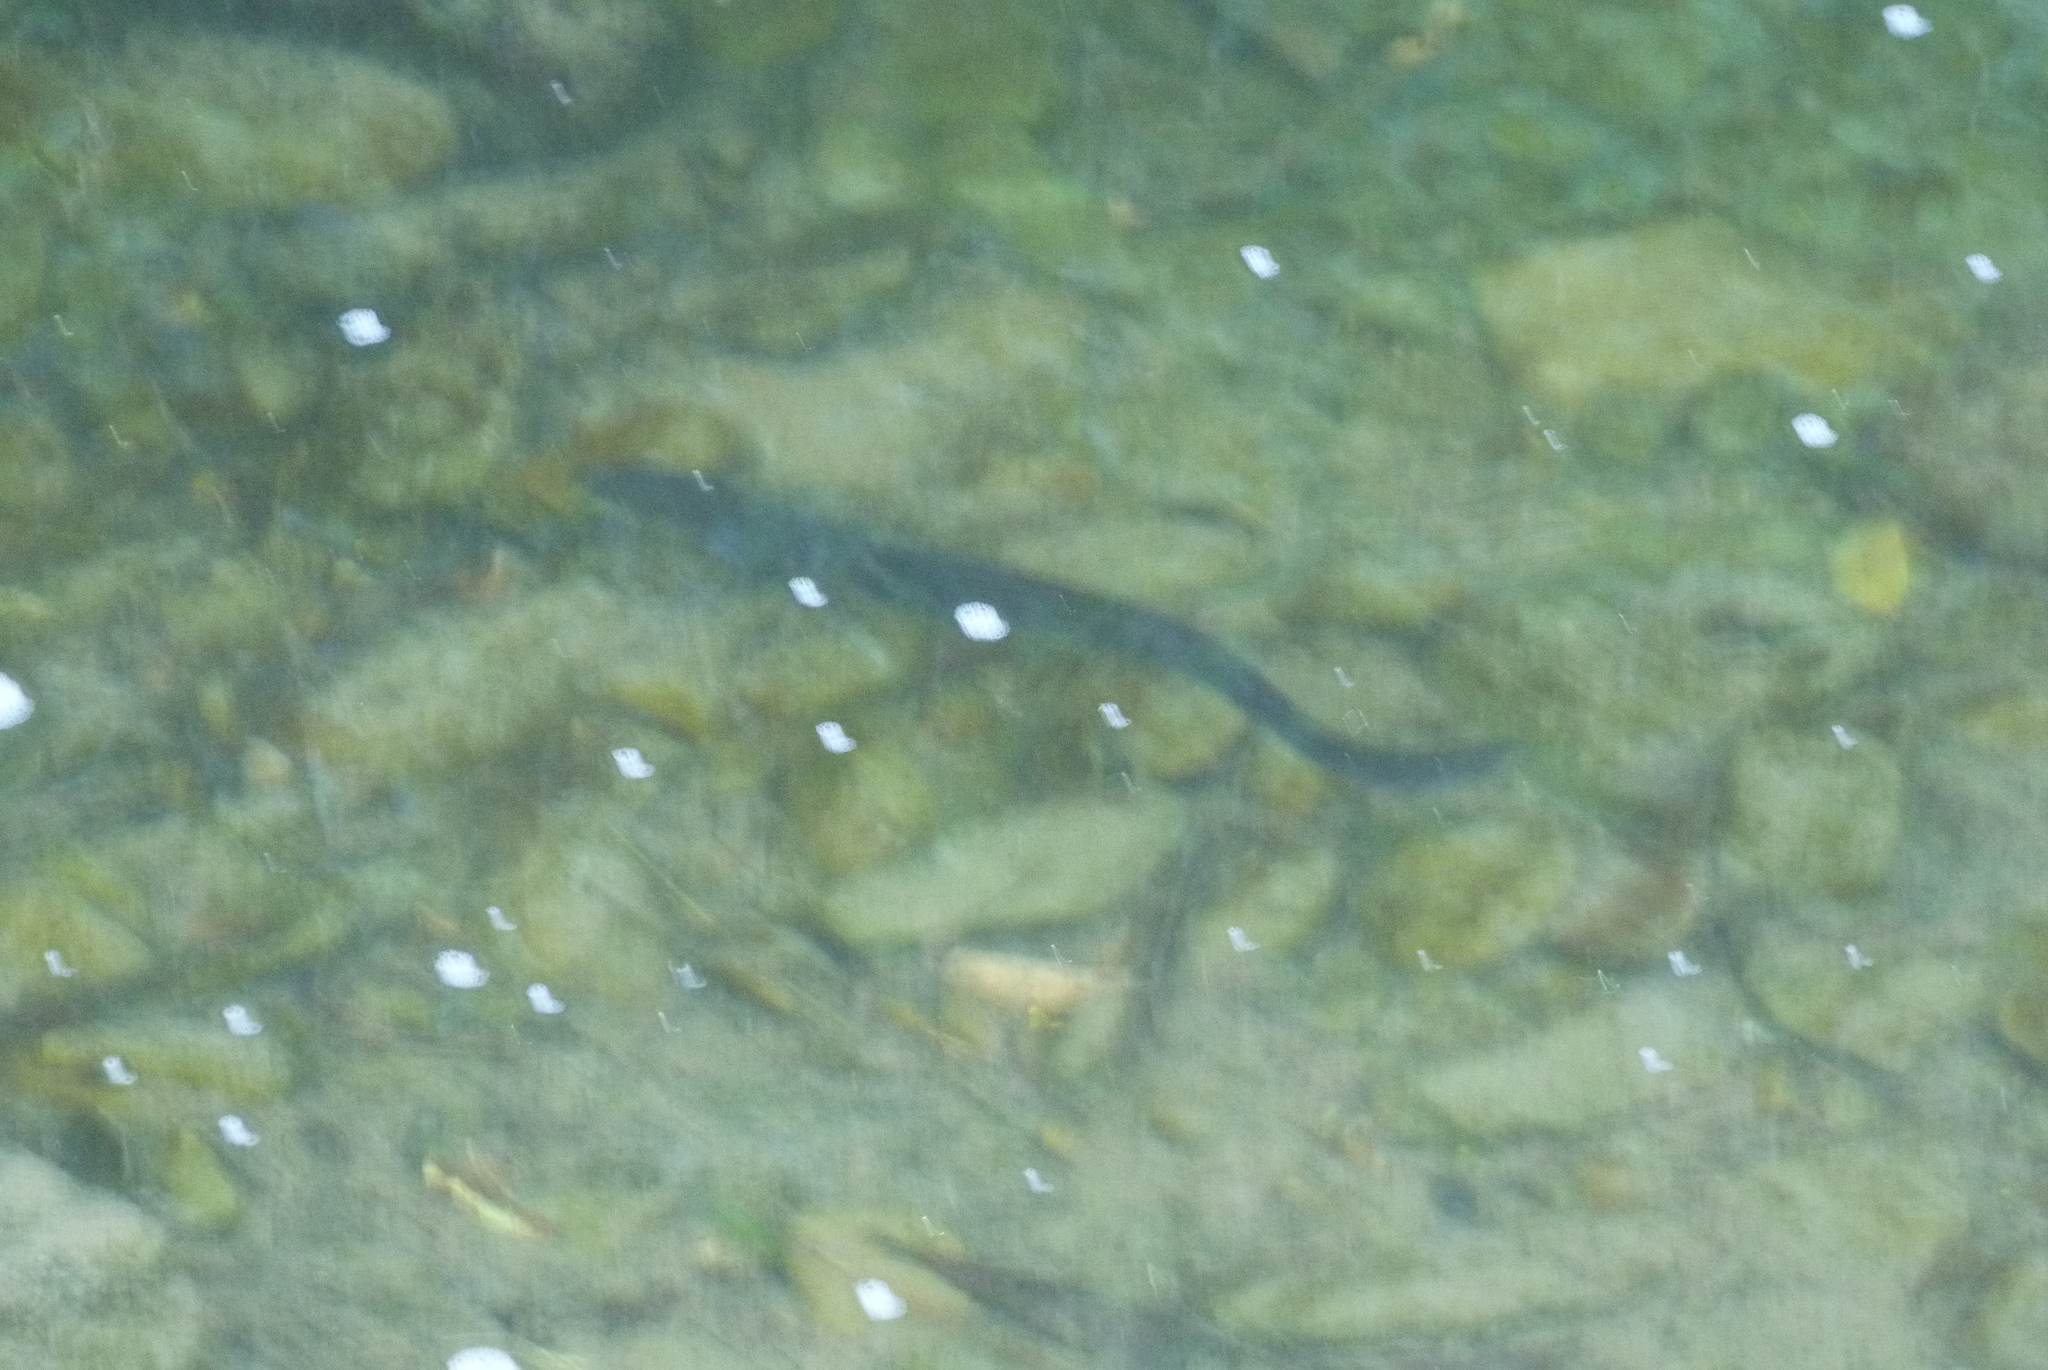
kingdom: Animalia
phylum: Chordata
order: Anguilliformes
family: Anguillidae
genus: Anguilla
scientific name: Anguilla australis
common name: Shortfin eel
